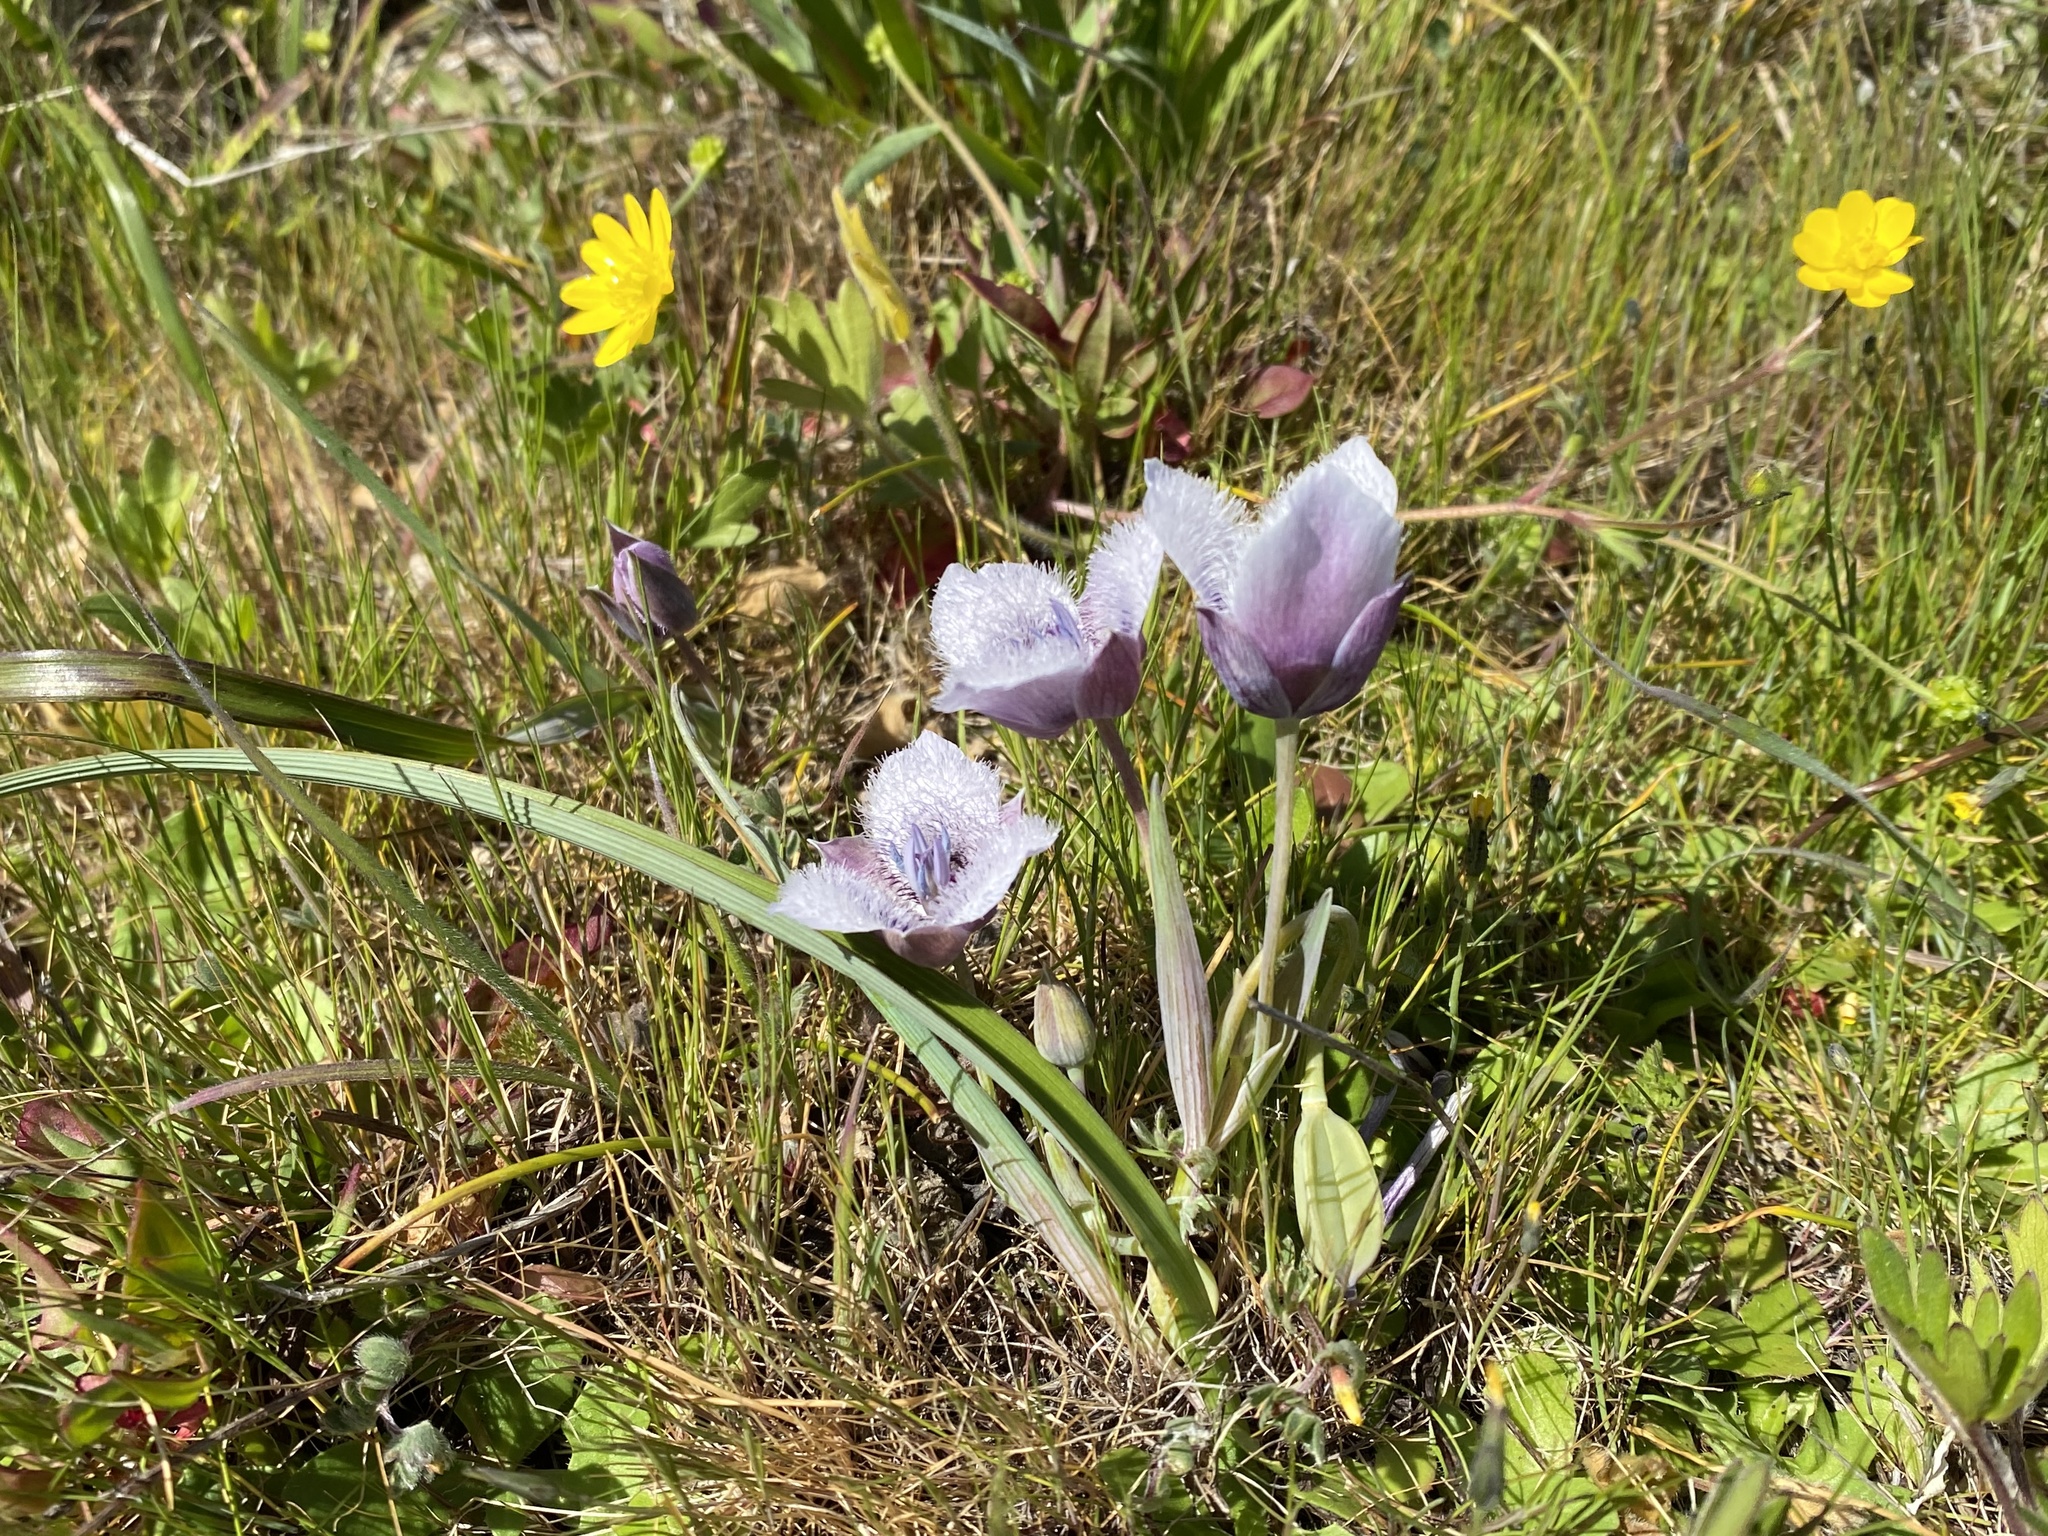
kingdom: Plantae
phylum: Tracheophyta
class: Liliopsida
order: Liliales
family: Liliaceae
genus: Calochortus
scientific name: Calochortus tolmiei
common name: Pussy-ears
